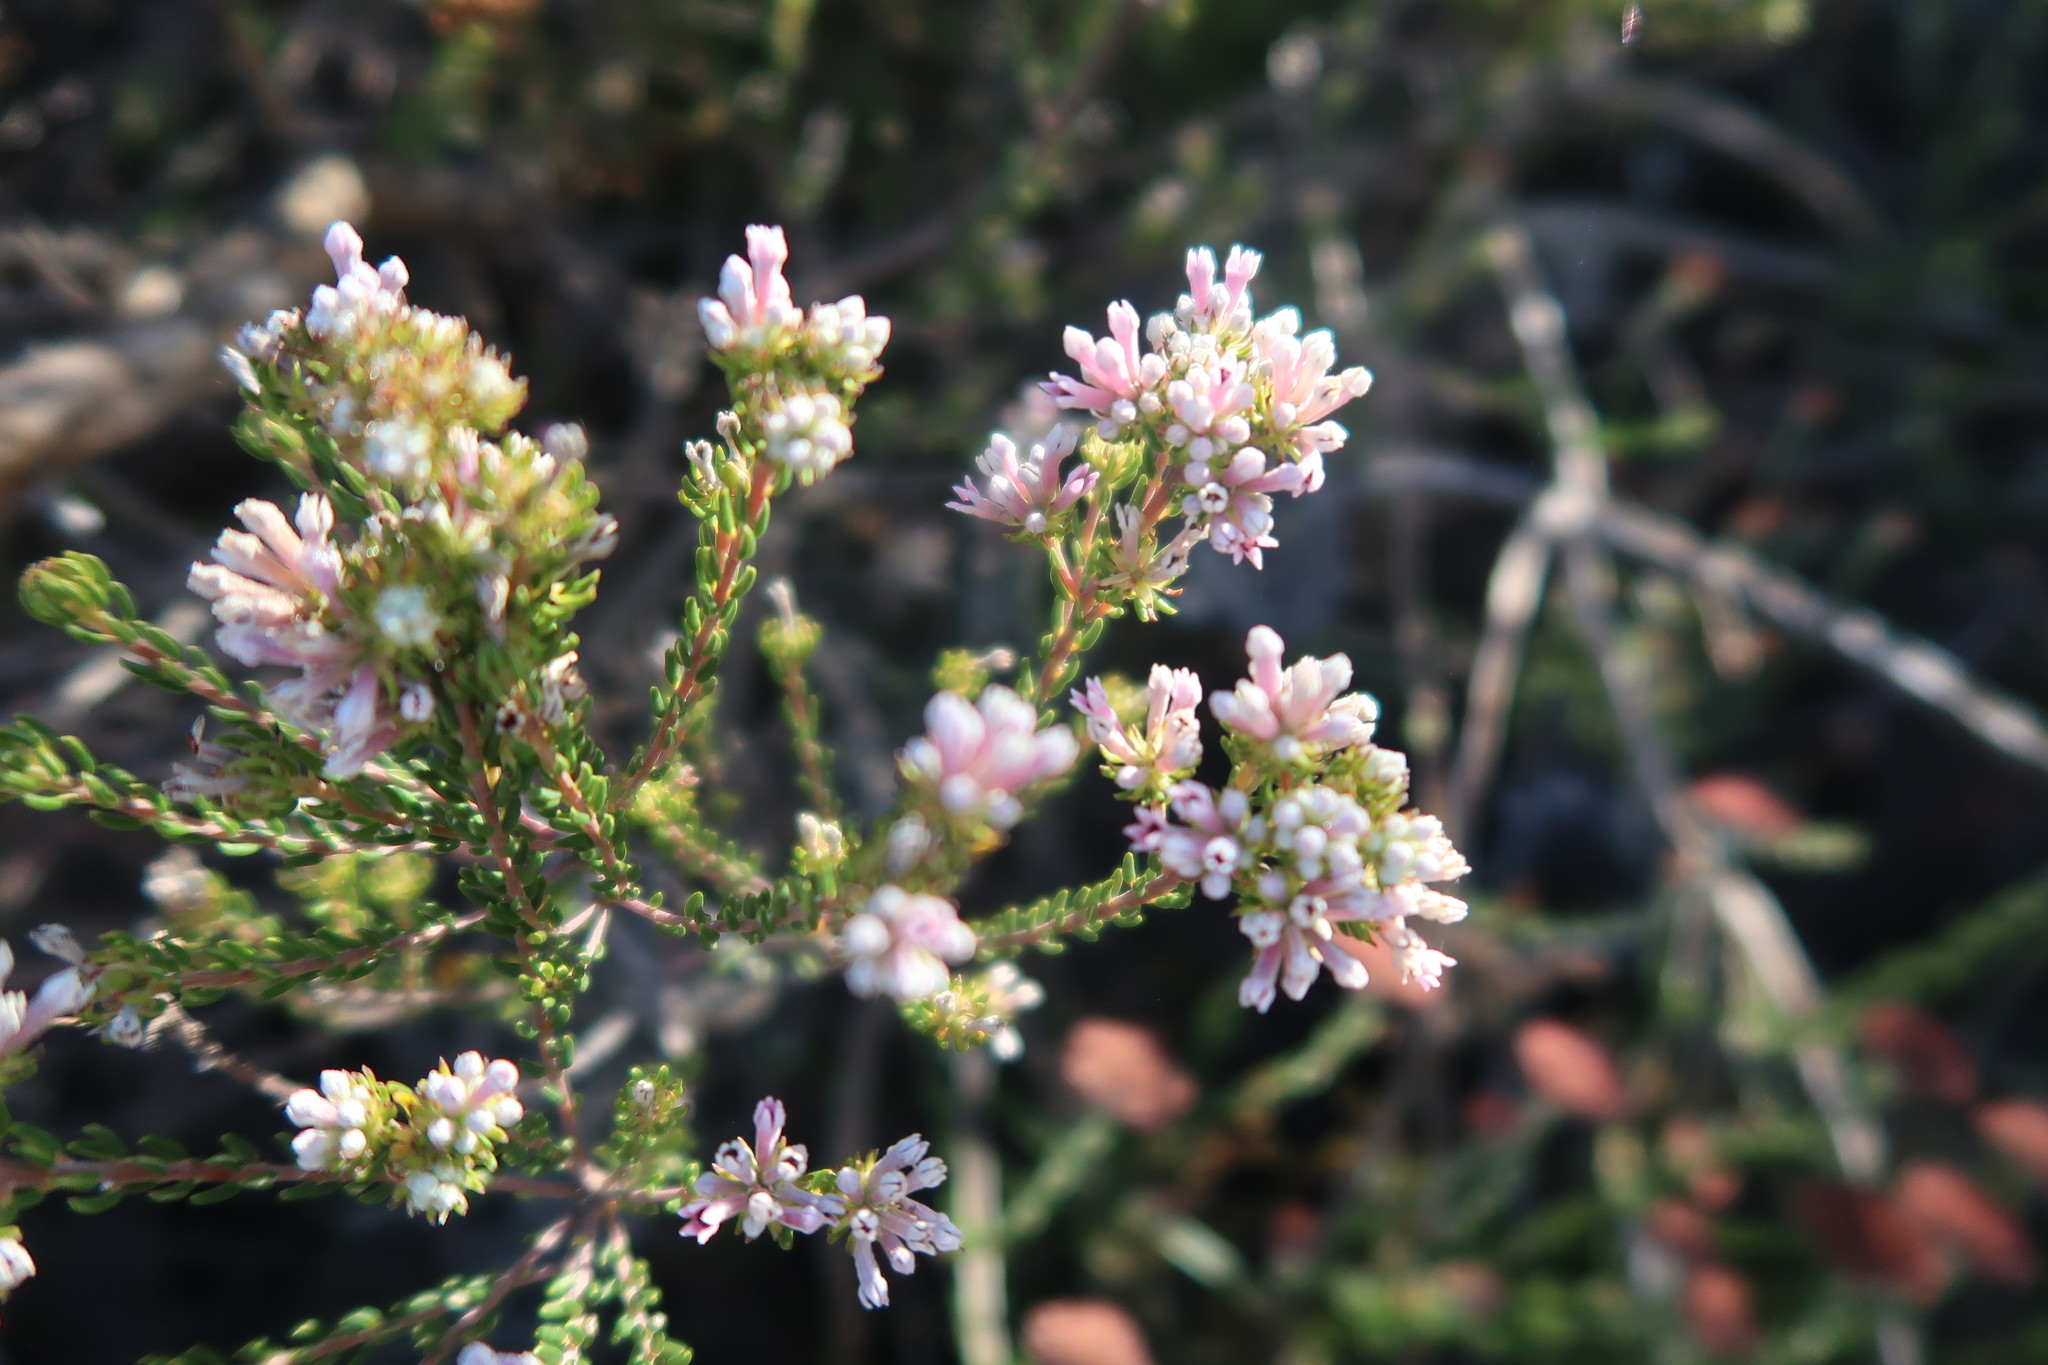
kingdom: Plantae
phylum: Tracheophyta
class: Magnoliopsida
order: Rosales
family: Rhamnaceae
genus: Phylica
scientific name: Phylica lachneaeoides
